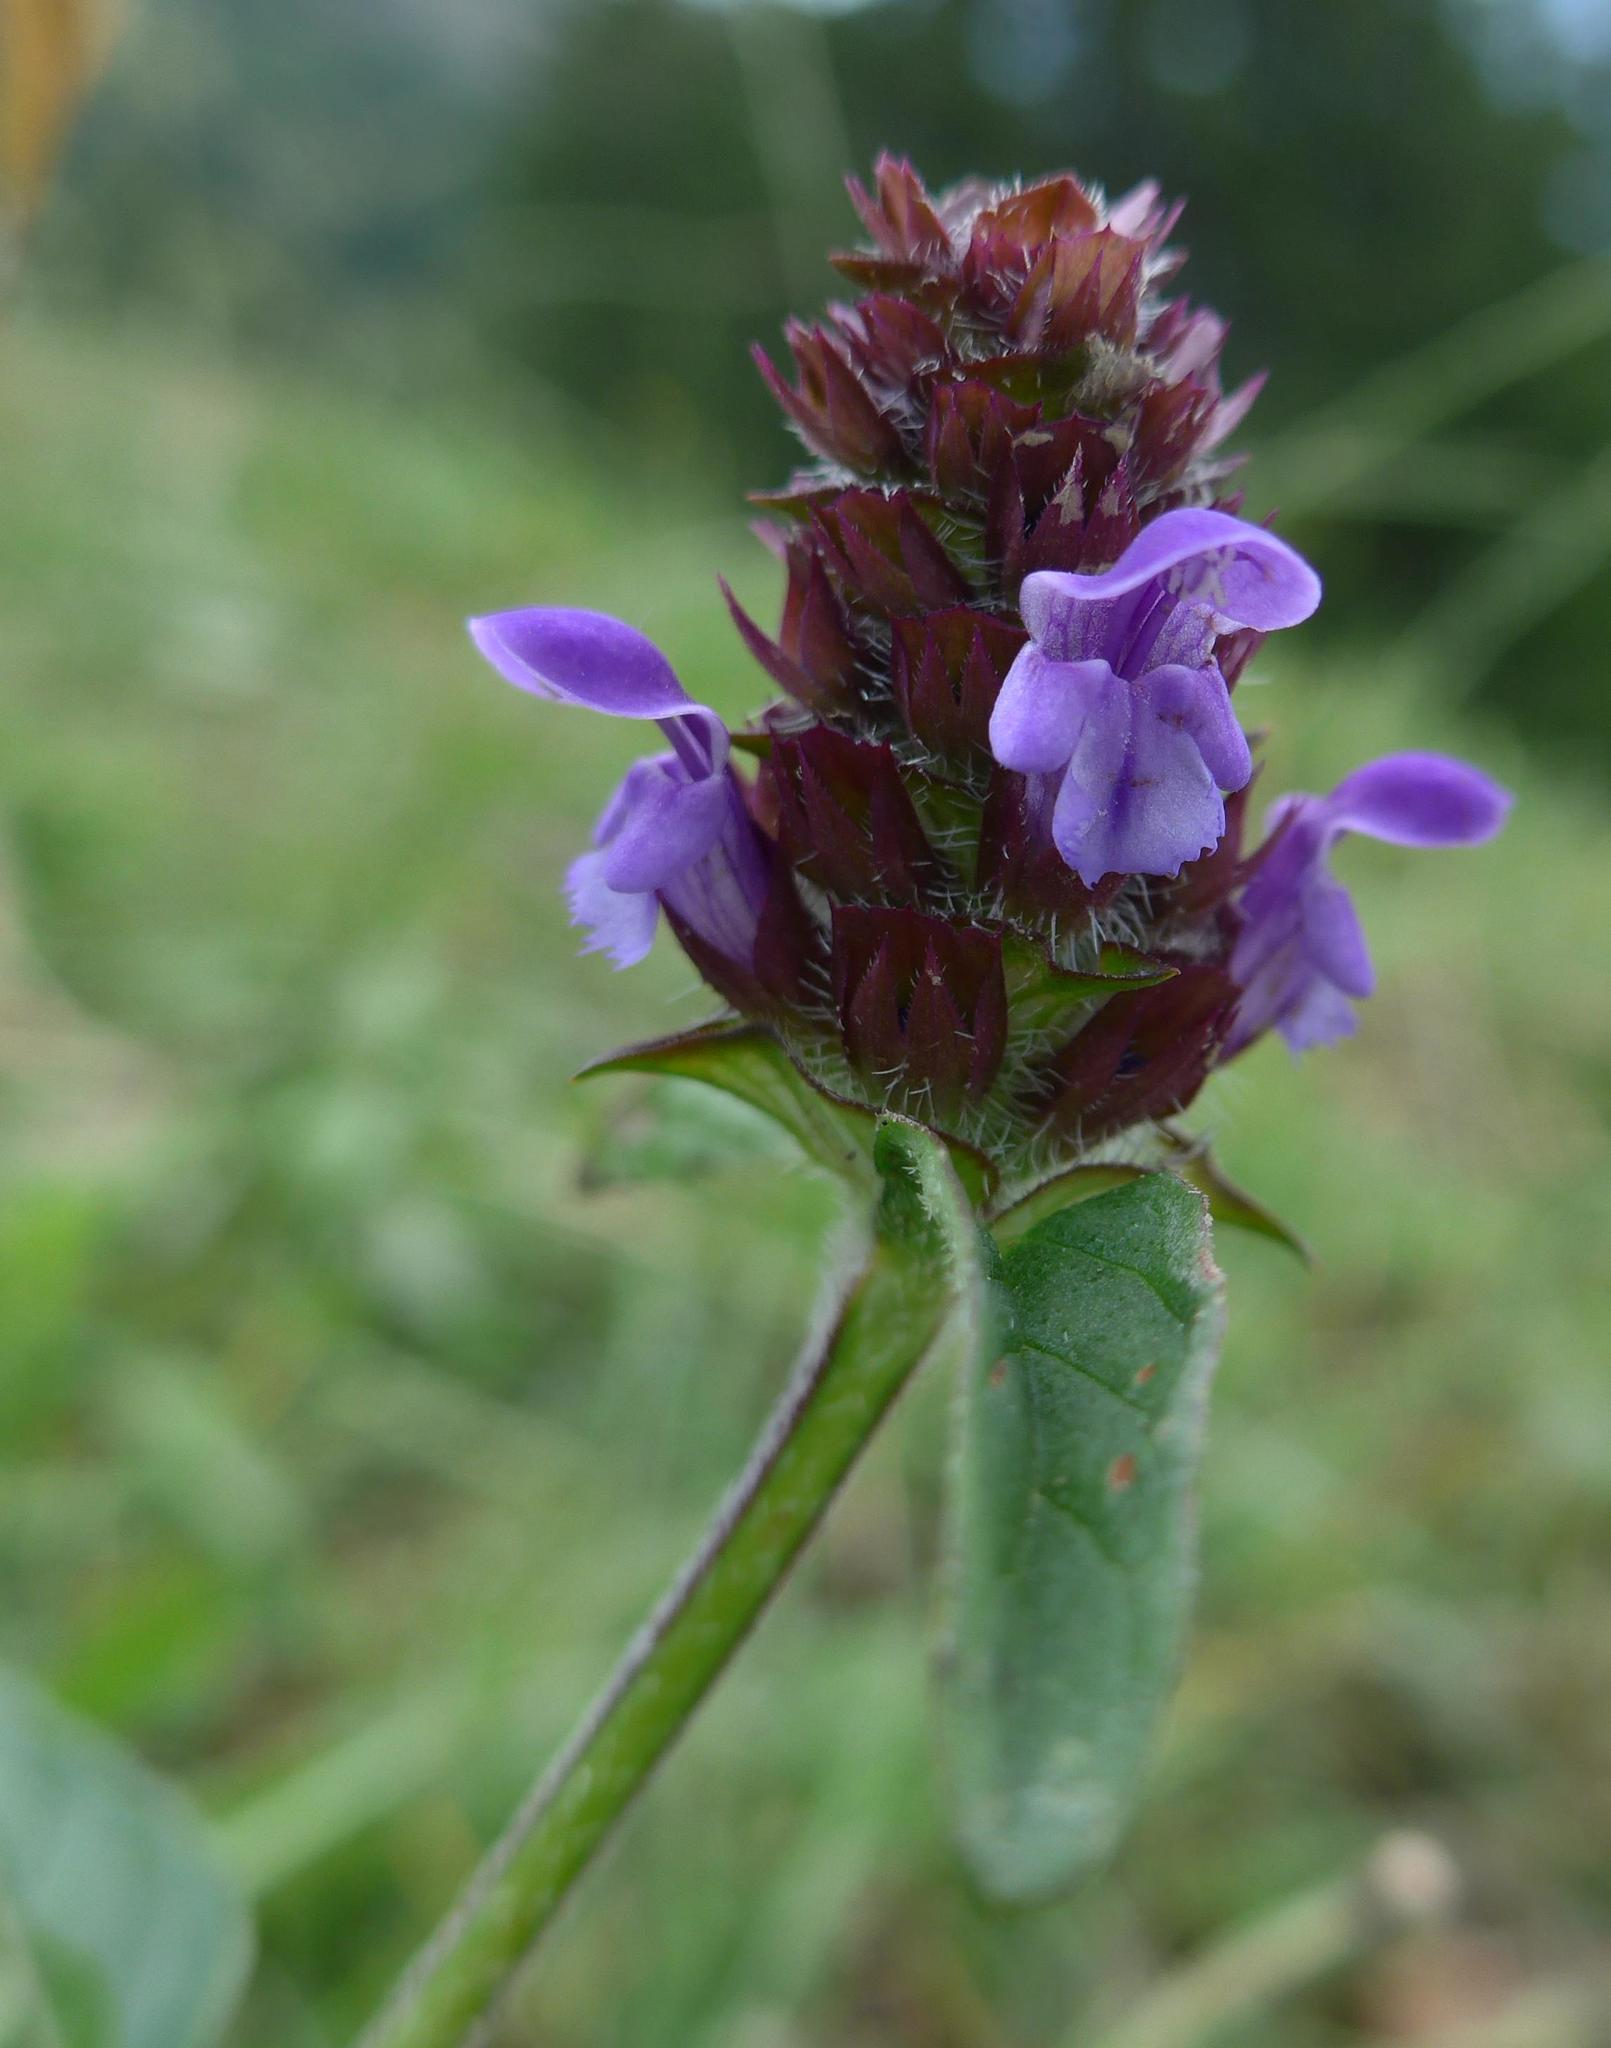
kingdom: Plantae
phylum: Tracheophyta
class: Magnoliopsida
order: Lamiales
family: Lamiaceae
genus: Prunella
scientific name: Prunella vulgaris
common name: Heal-all
